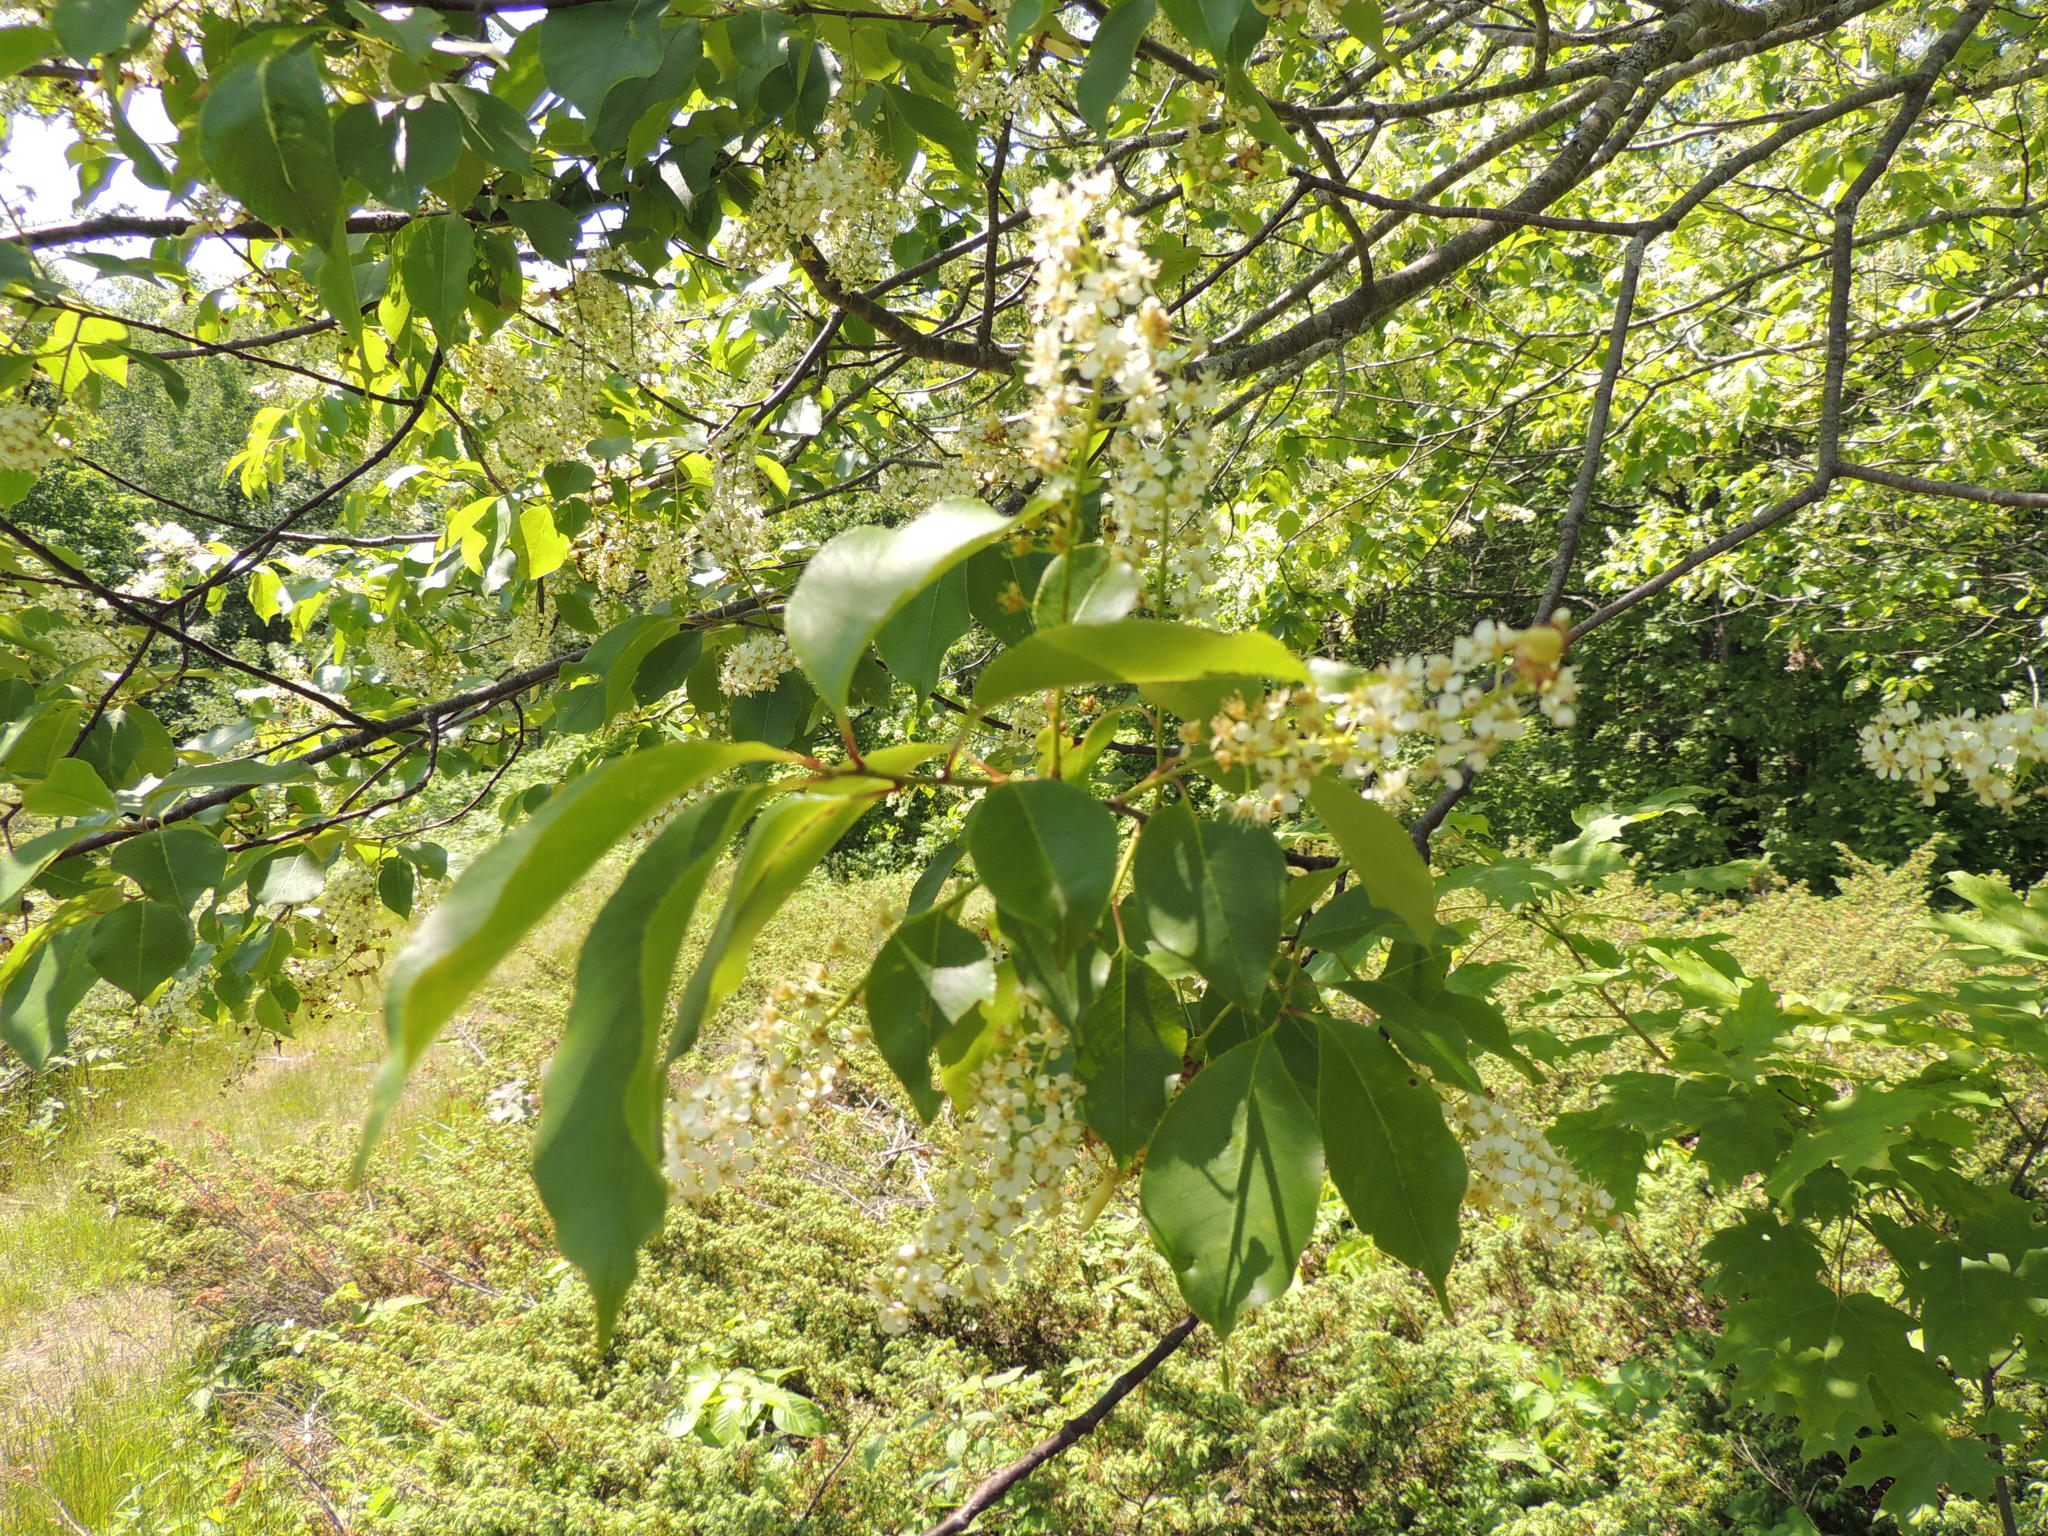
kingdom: Plantae
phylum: Tracheophyta
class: Magnoliopsida
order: Rosales
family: Rosaceae
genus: Prunus
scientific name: Prunus virginiana
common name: Chokecherry
